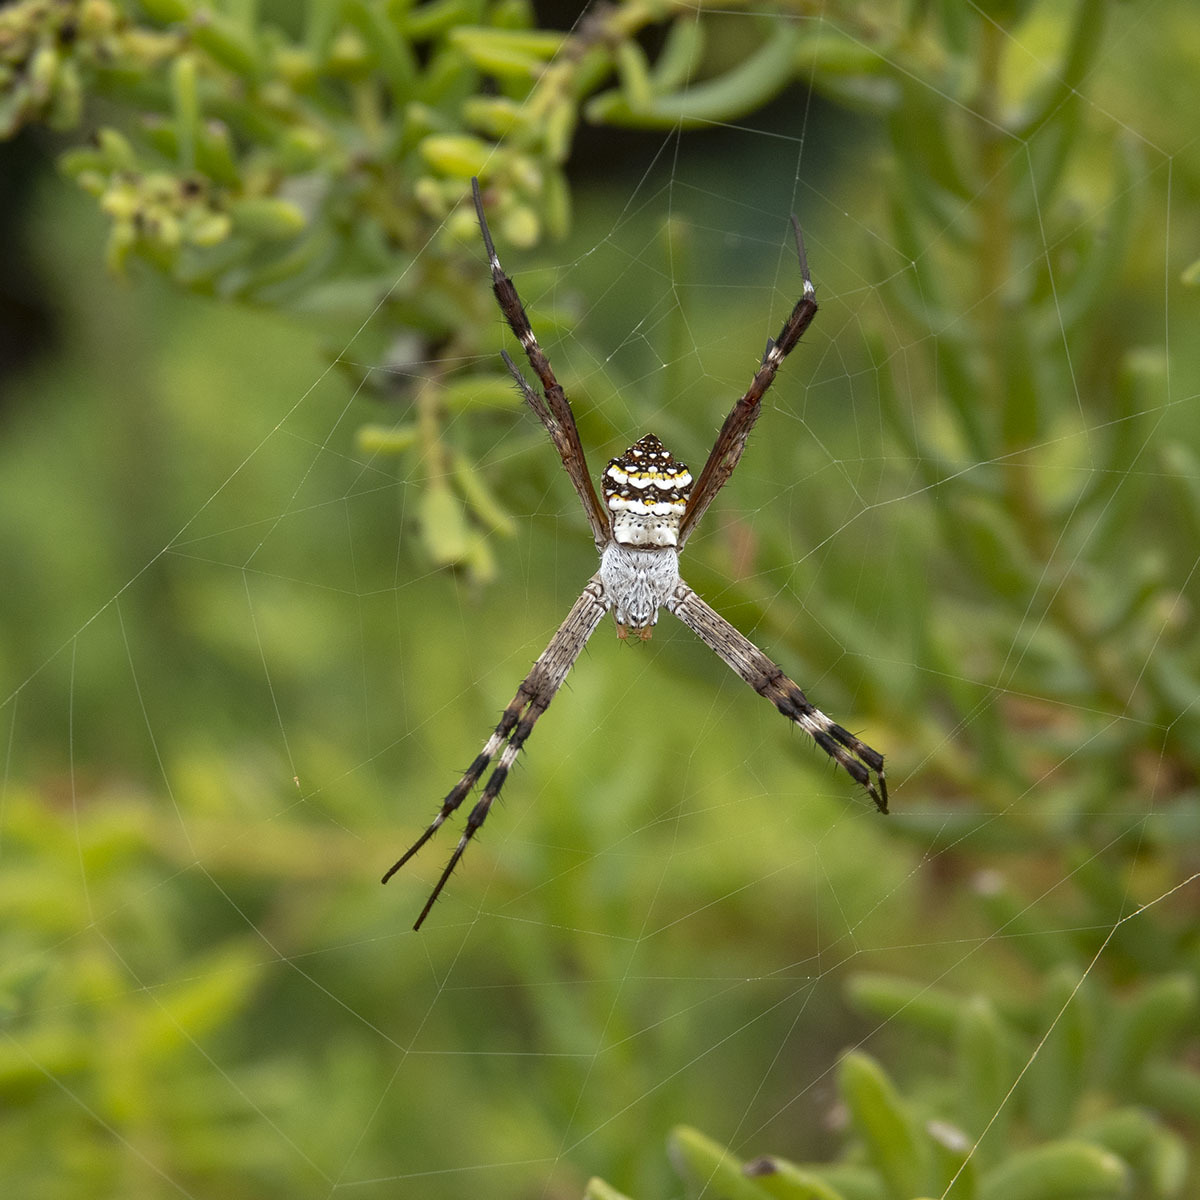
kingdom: Animalia
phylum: Arthropoda
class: Arachnida
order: Araneae
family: Araneidae
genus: Argiope
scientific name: Argiope anasuja
